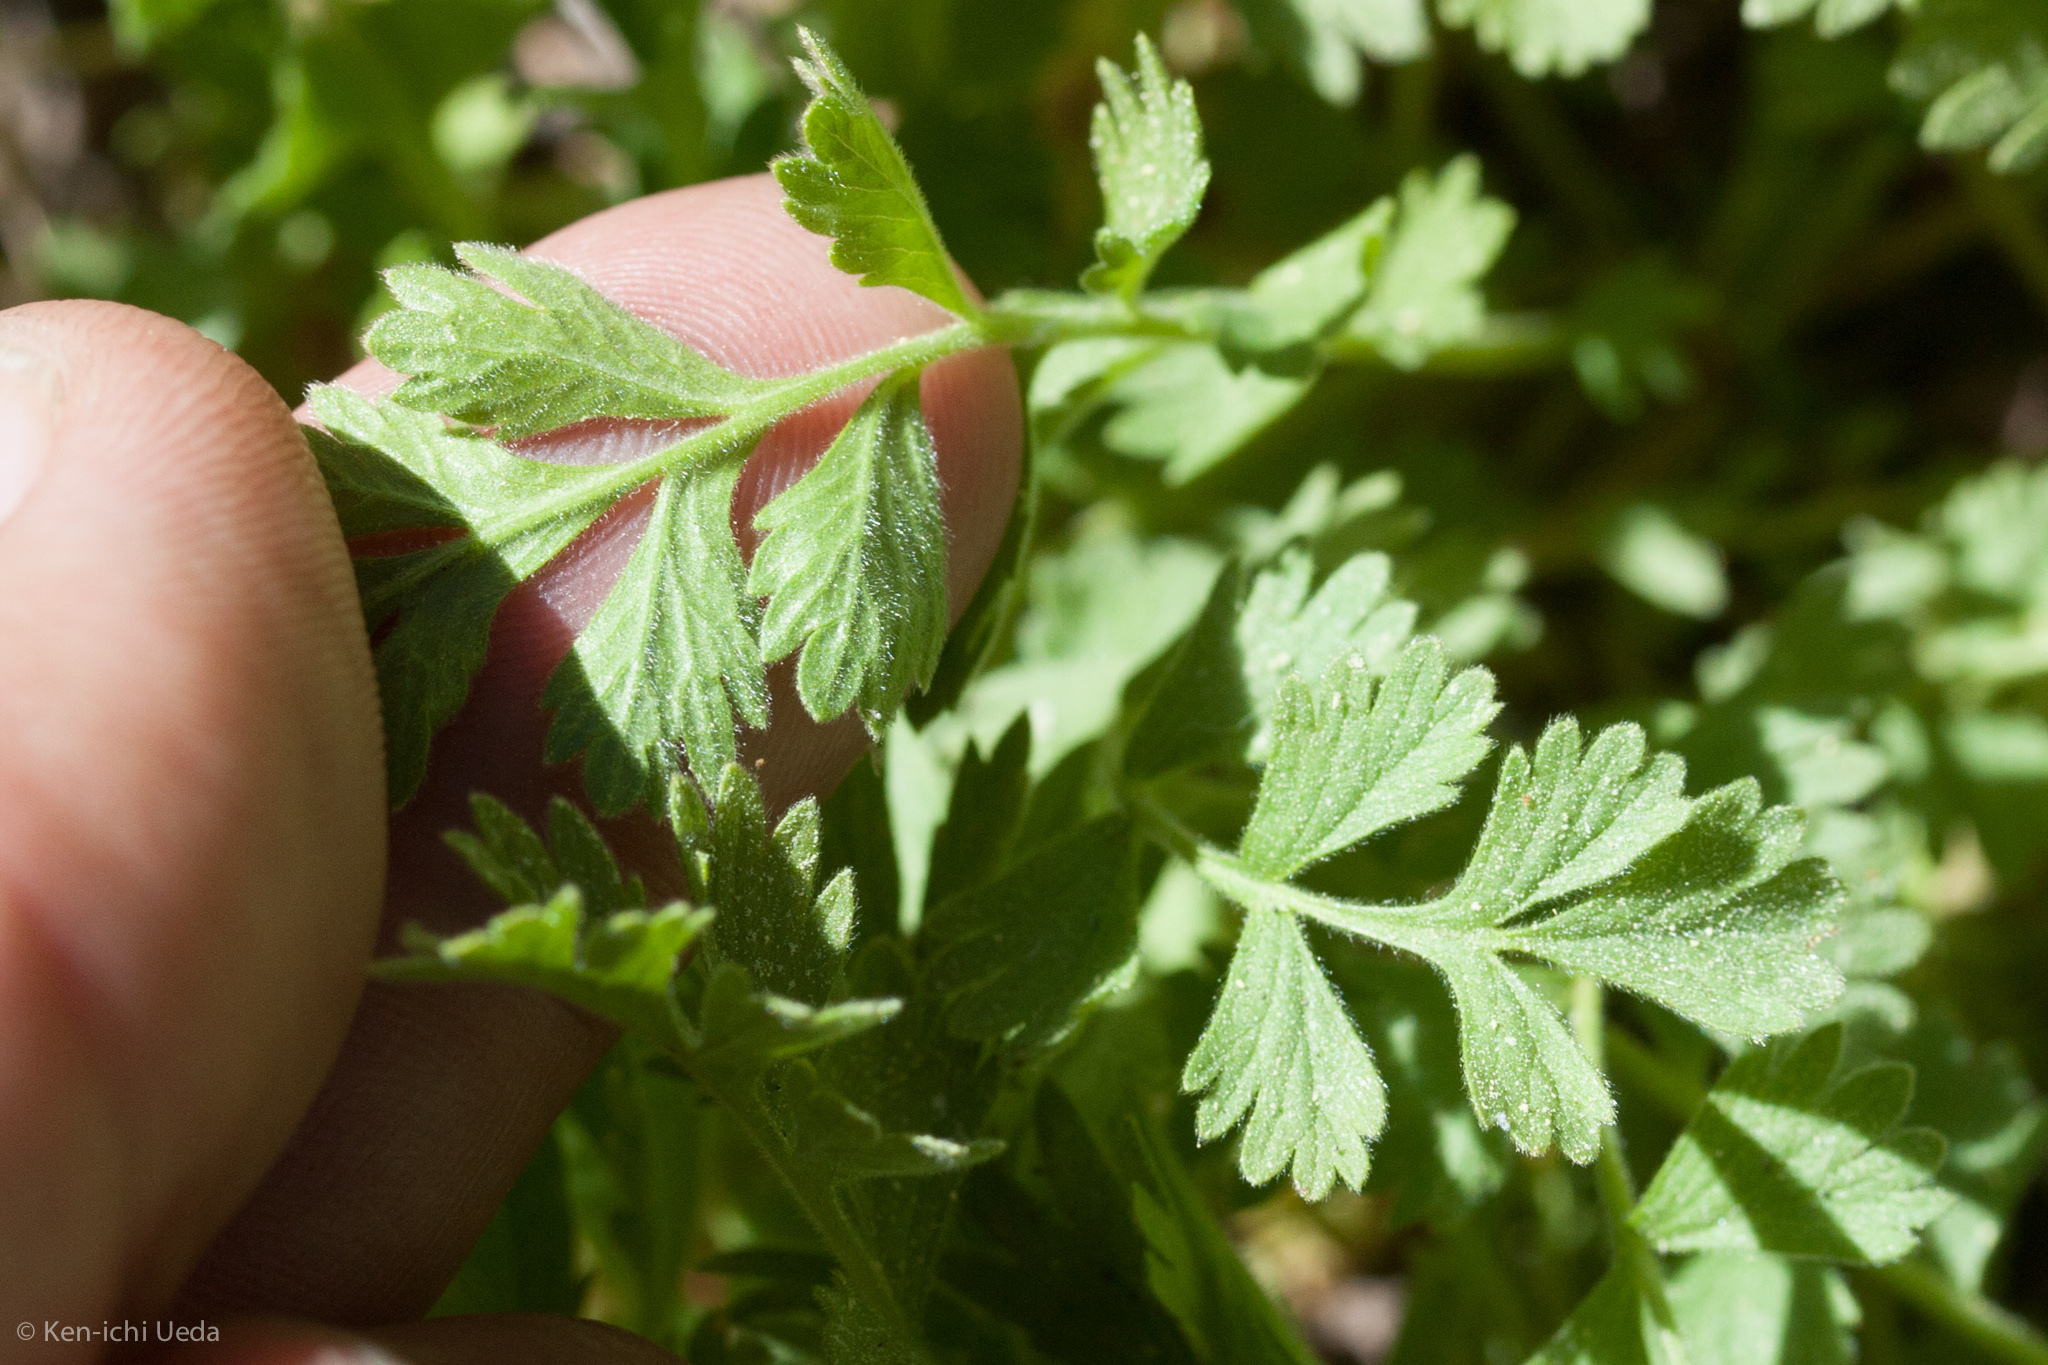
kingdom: Plantae
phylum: Tracheophyta
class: Magnoliopsida
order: Rosales
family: Rosaceae
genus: Potentilla
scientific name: Potentilla douglasii
